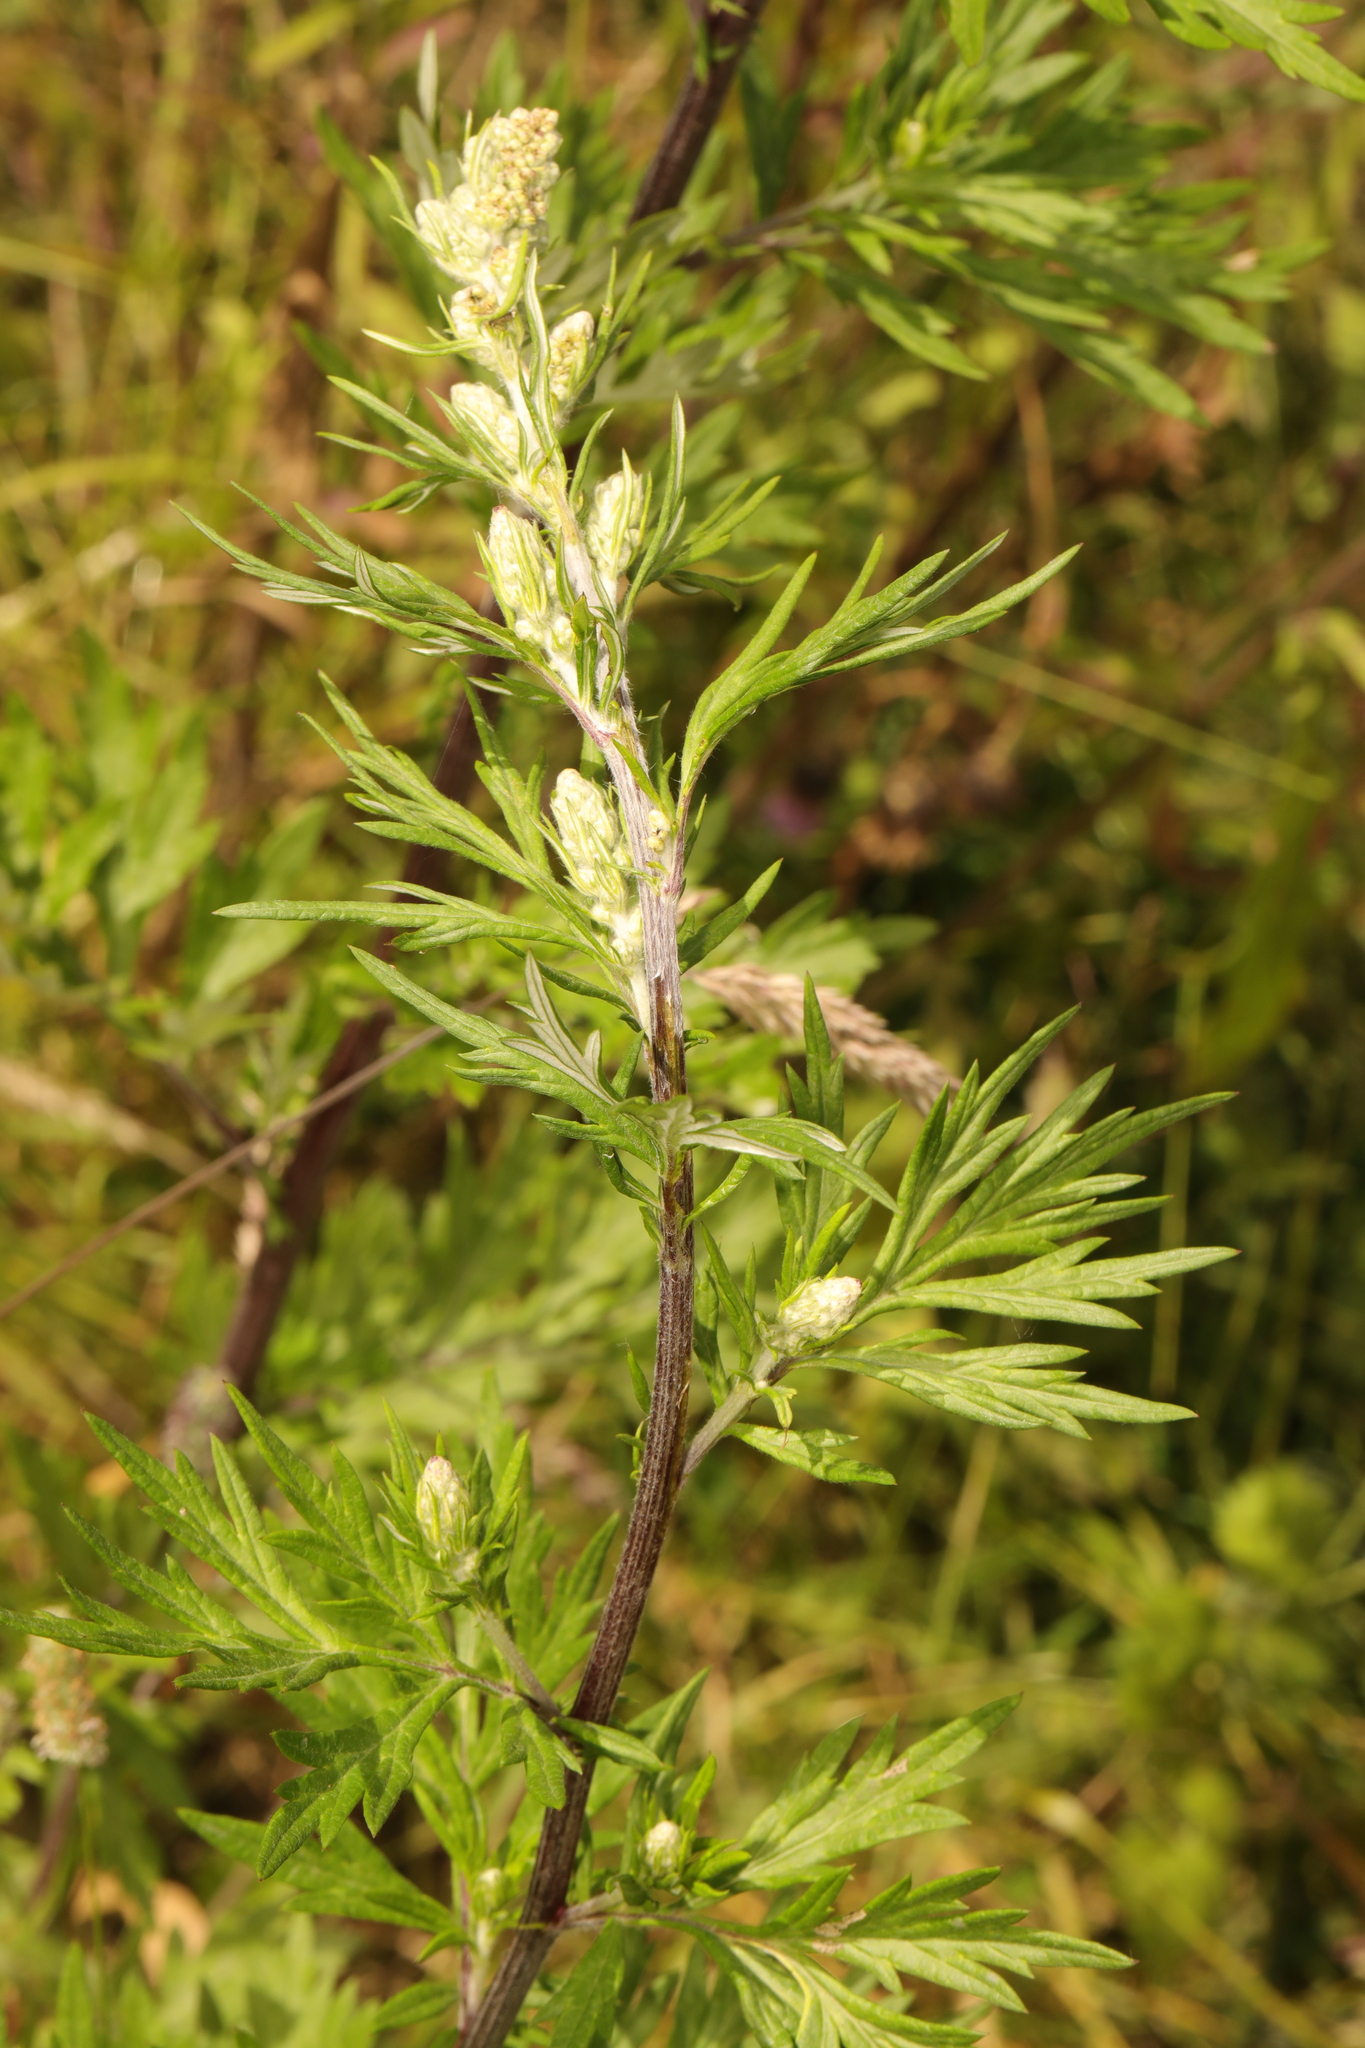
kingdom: Plantae
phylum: Tracheophyta
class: Magnoliopsida
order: Asterales
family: Asteraceae
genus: Artemisia
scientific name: Artemisia vulgaris
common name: Mugwort
